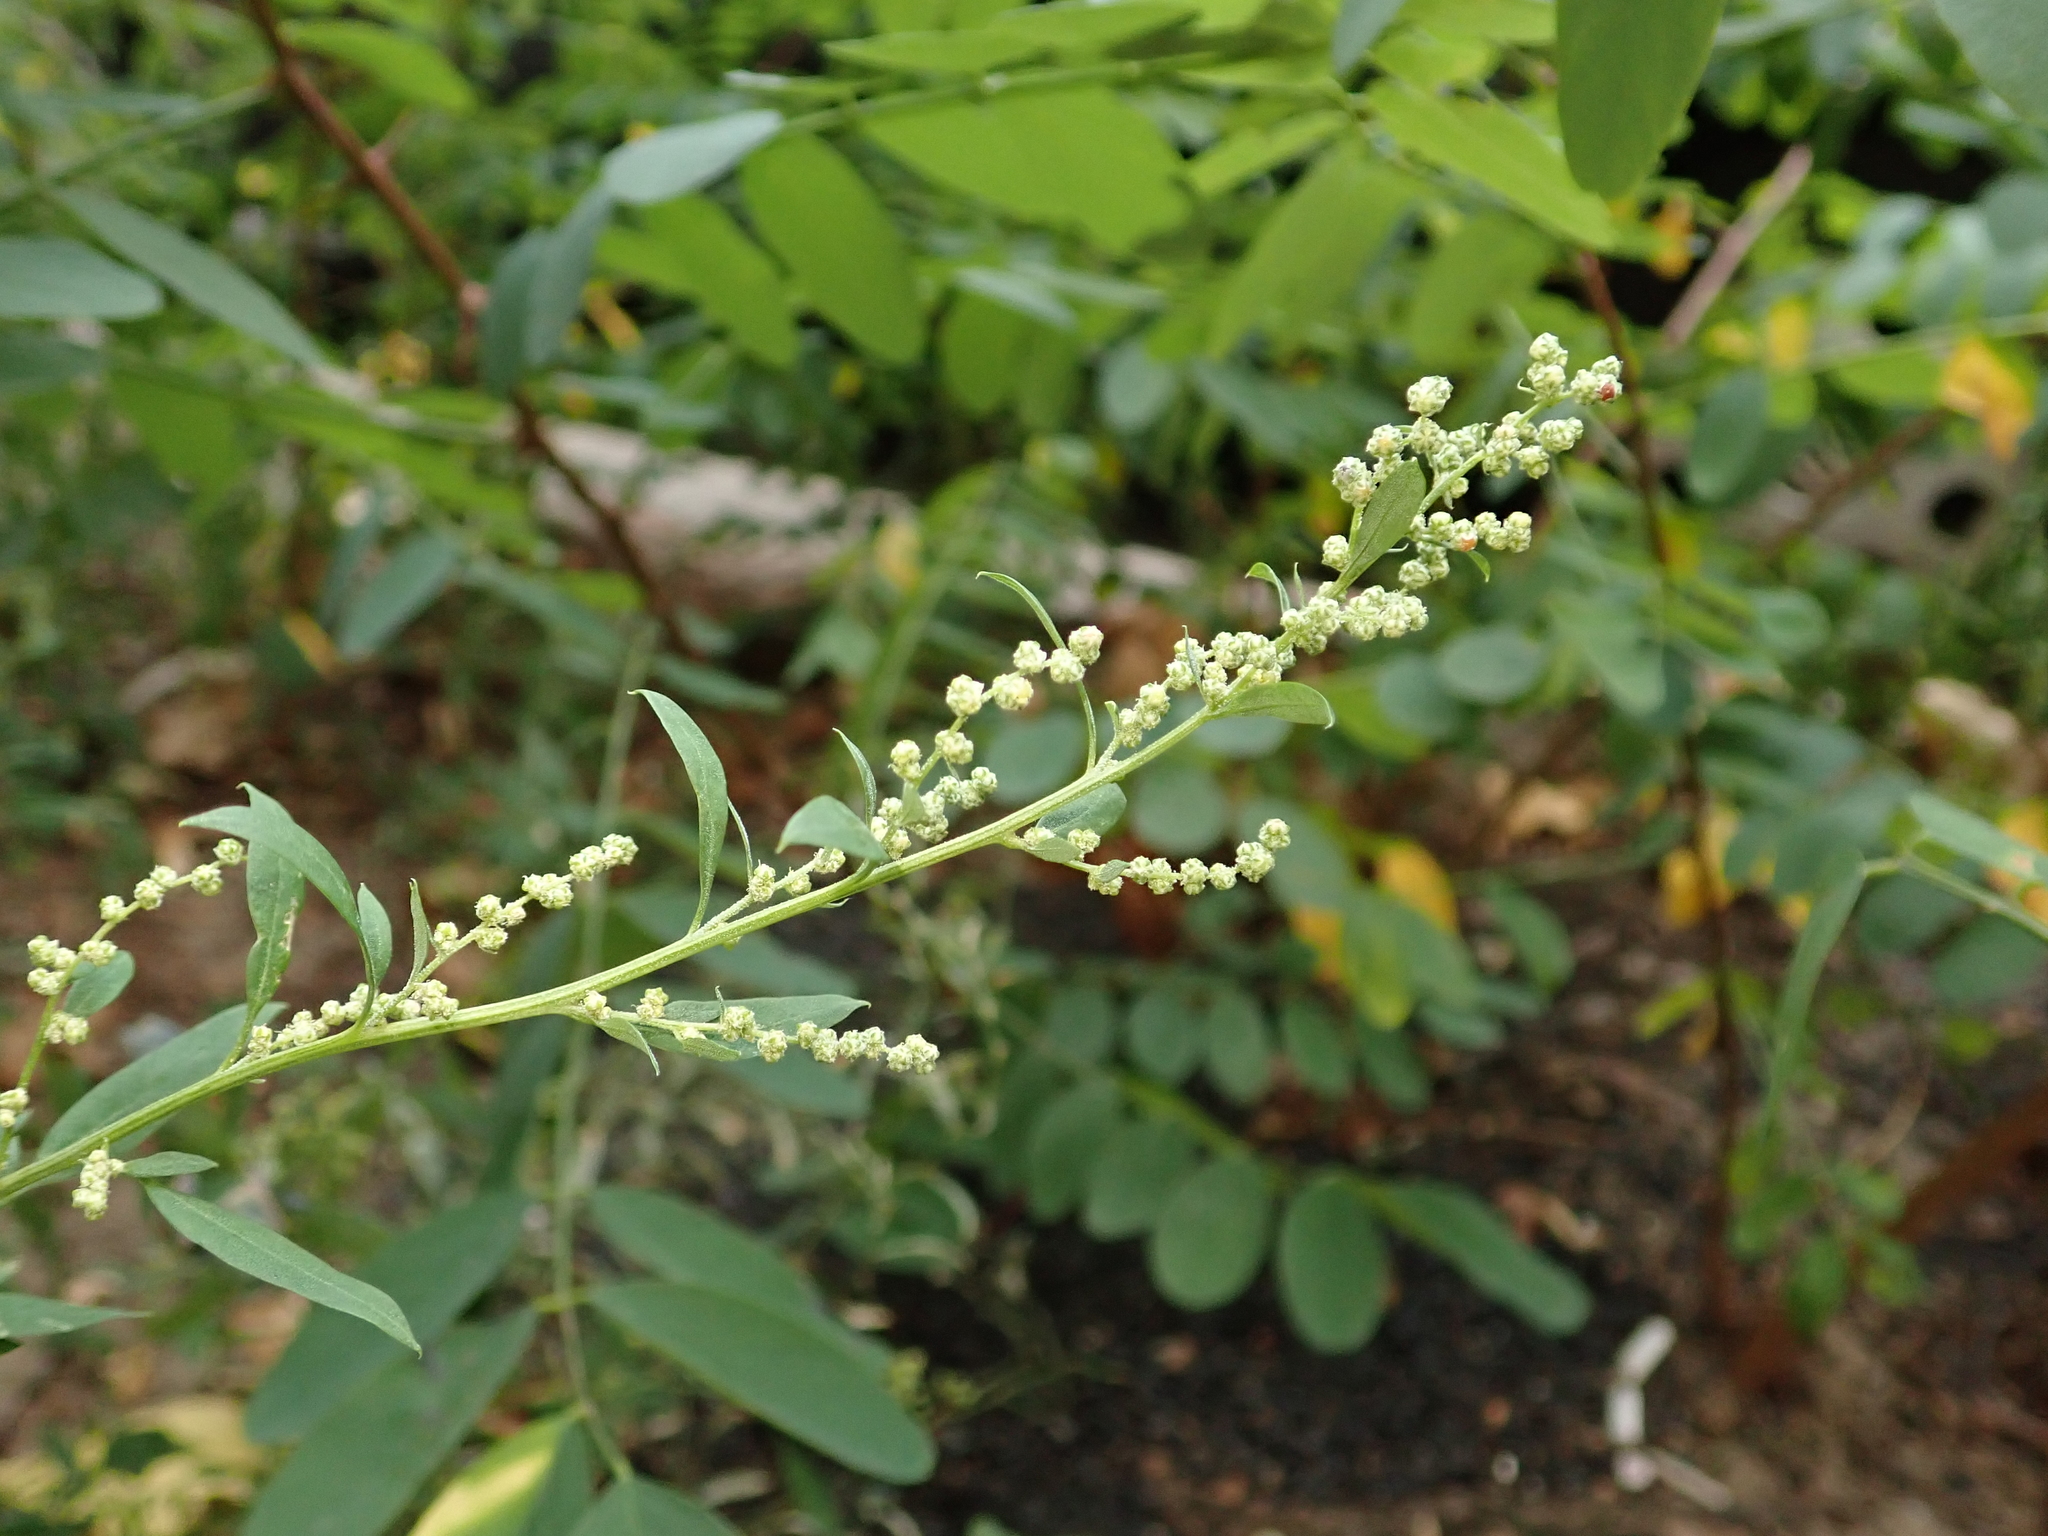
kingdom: Plantae
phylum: Tracheophyta
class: Magnoliopsida
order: Caryophyllales
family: Amaranthaceae
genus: Chenopodium
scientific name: Chenopodium album
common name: Fat-hen
